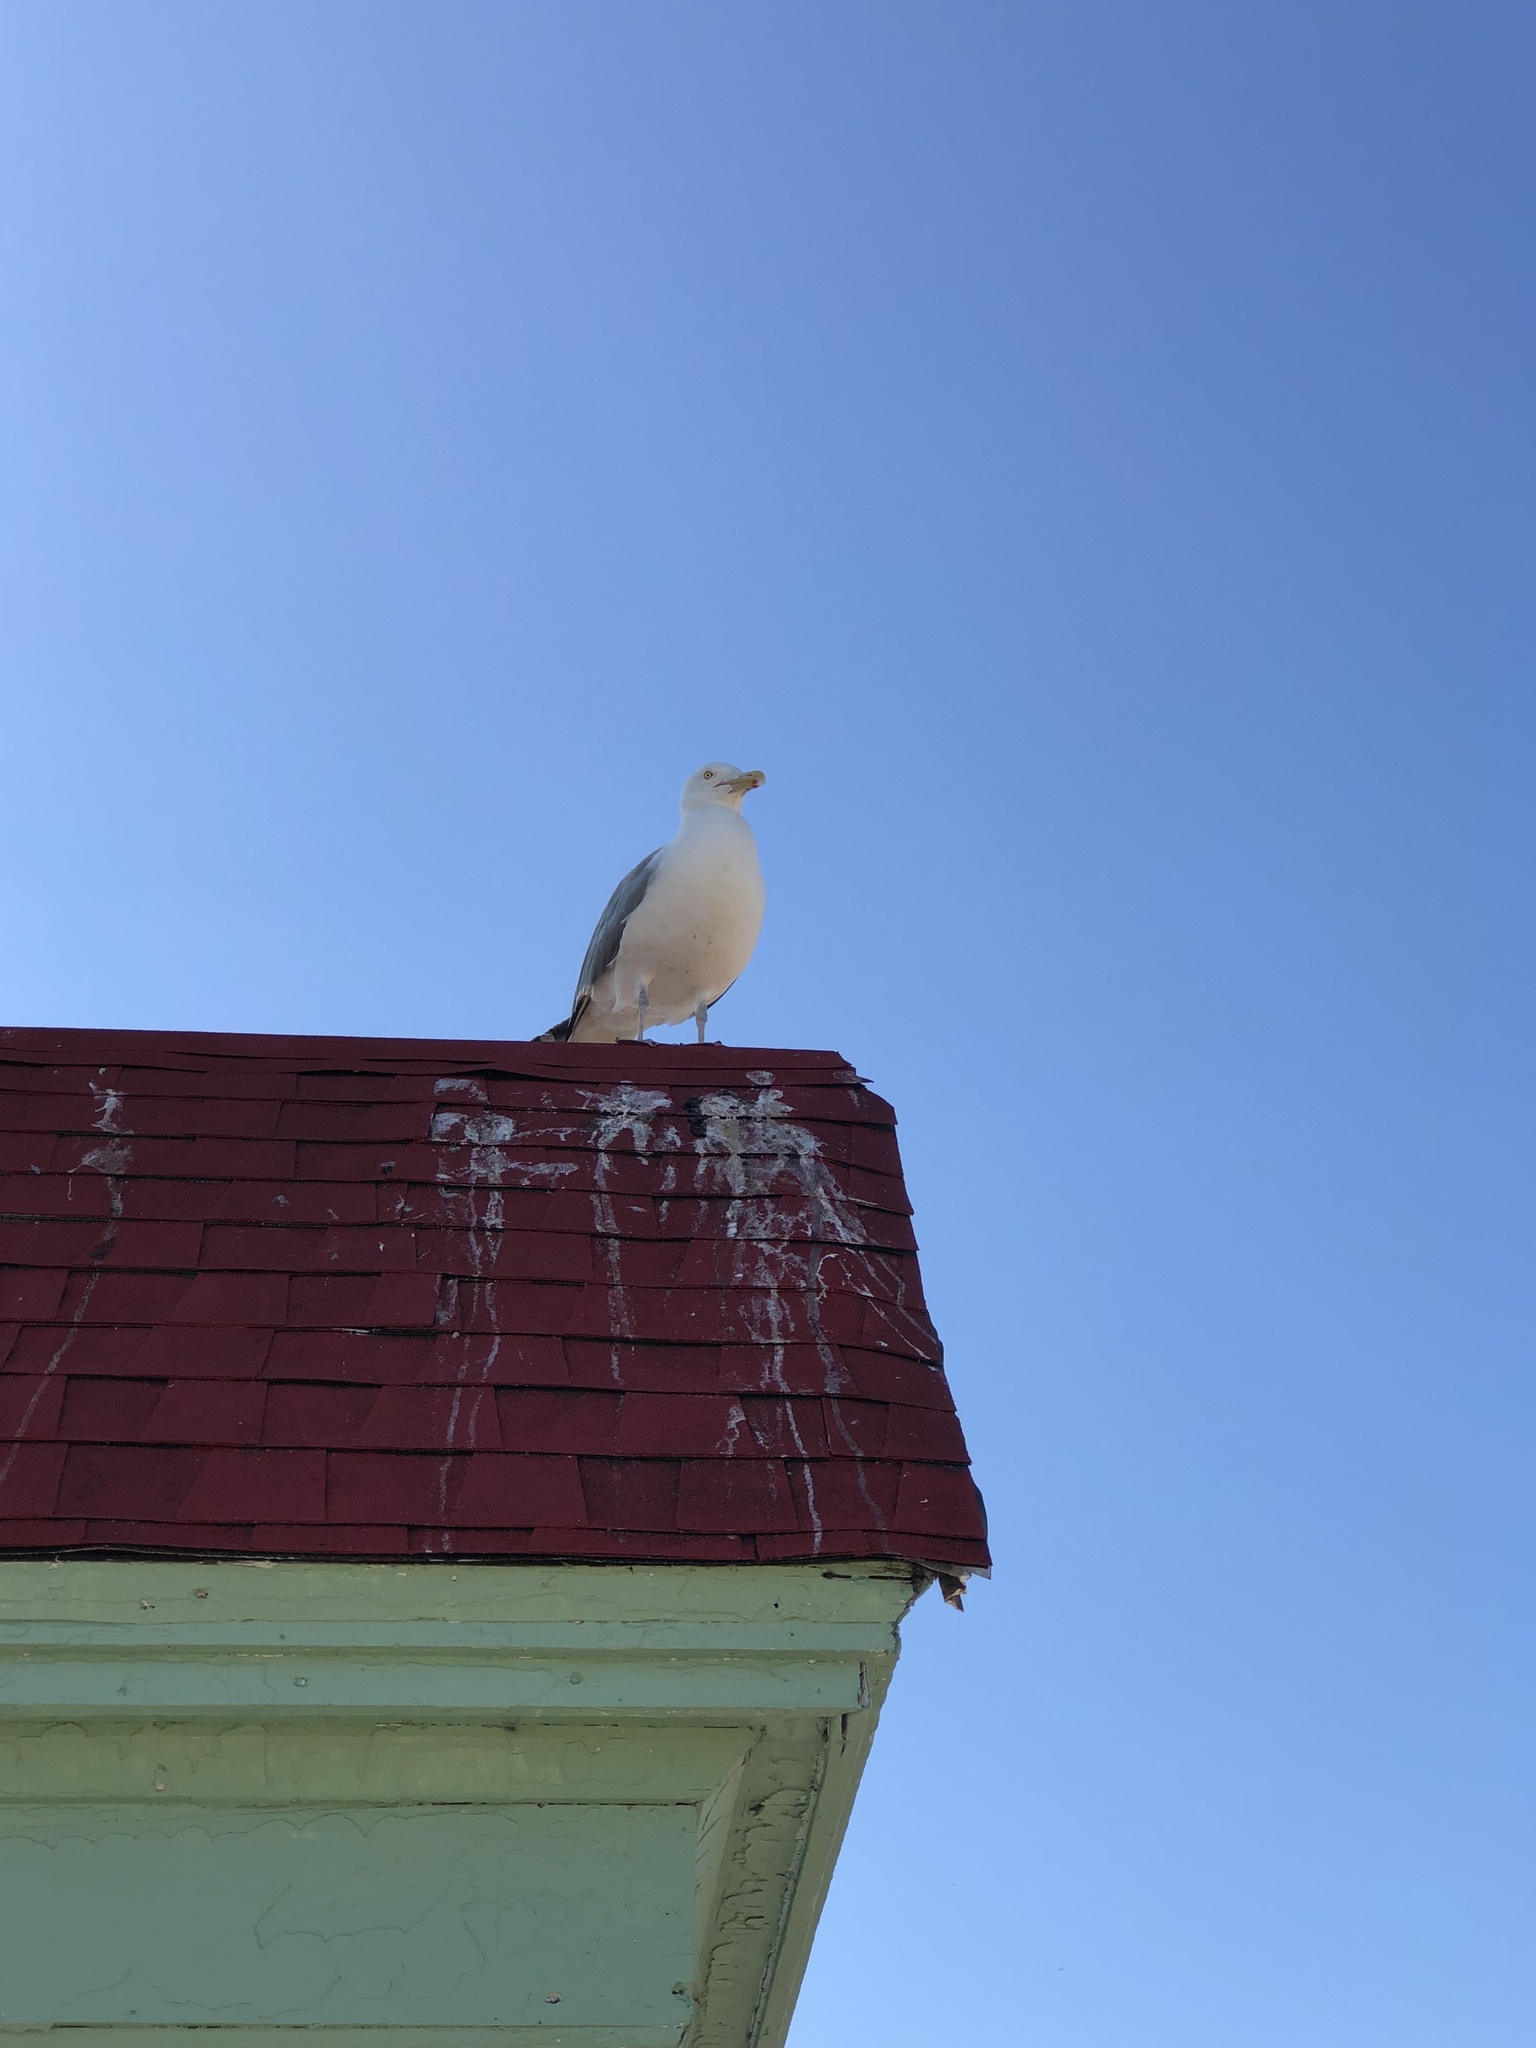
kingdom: Animalia
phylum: Chordata
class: Aves
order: Charadriiformes
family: Laridae
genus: Larus
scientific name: Larus argentatus
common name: Herring gull
